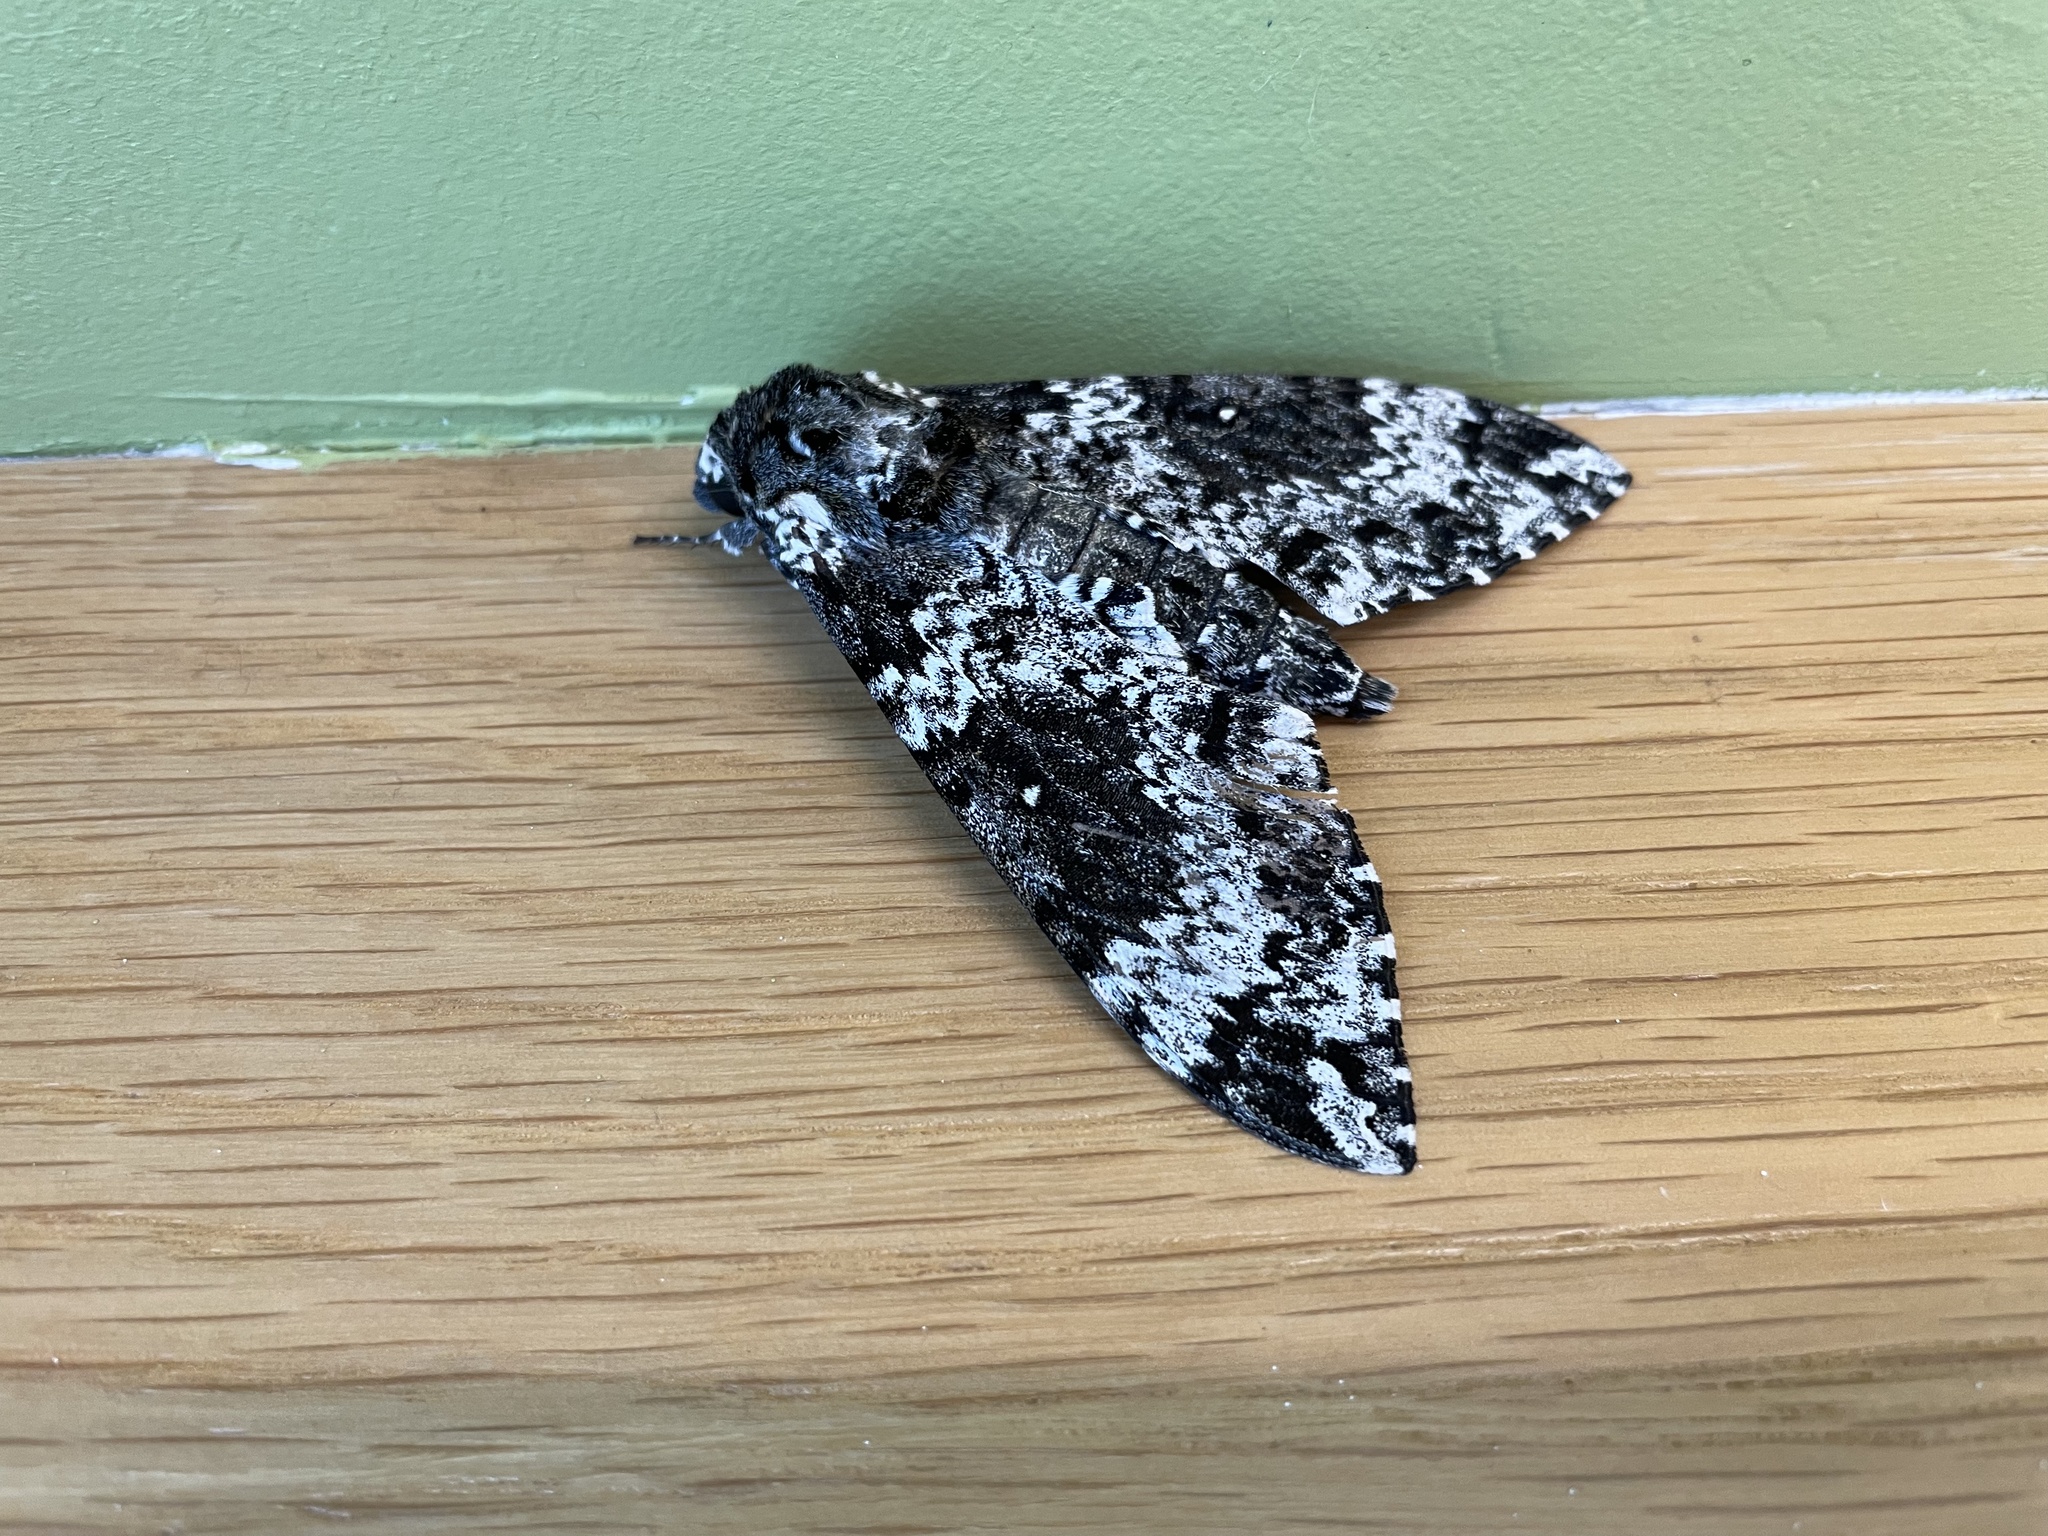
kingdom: Animalia
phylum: Arthropoda
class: Insecta
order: Lepidoptera
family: Sphingidae
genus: Manduca
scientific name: Manduca rustica
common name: Rustic sphinx
